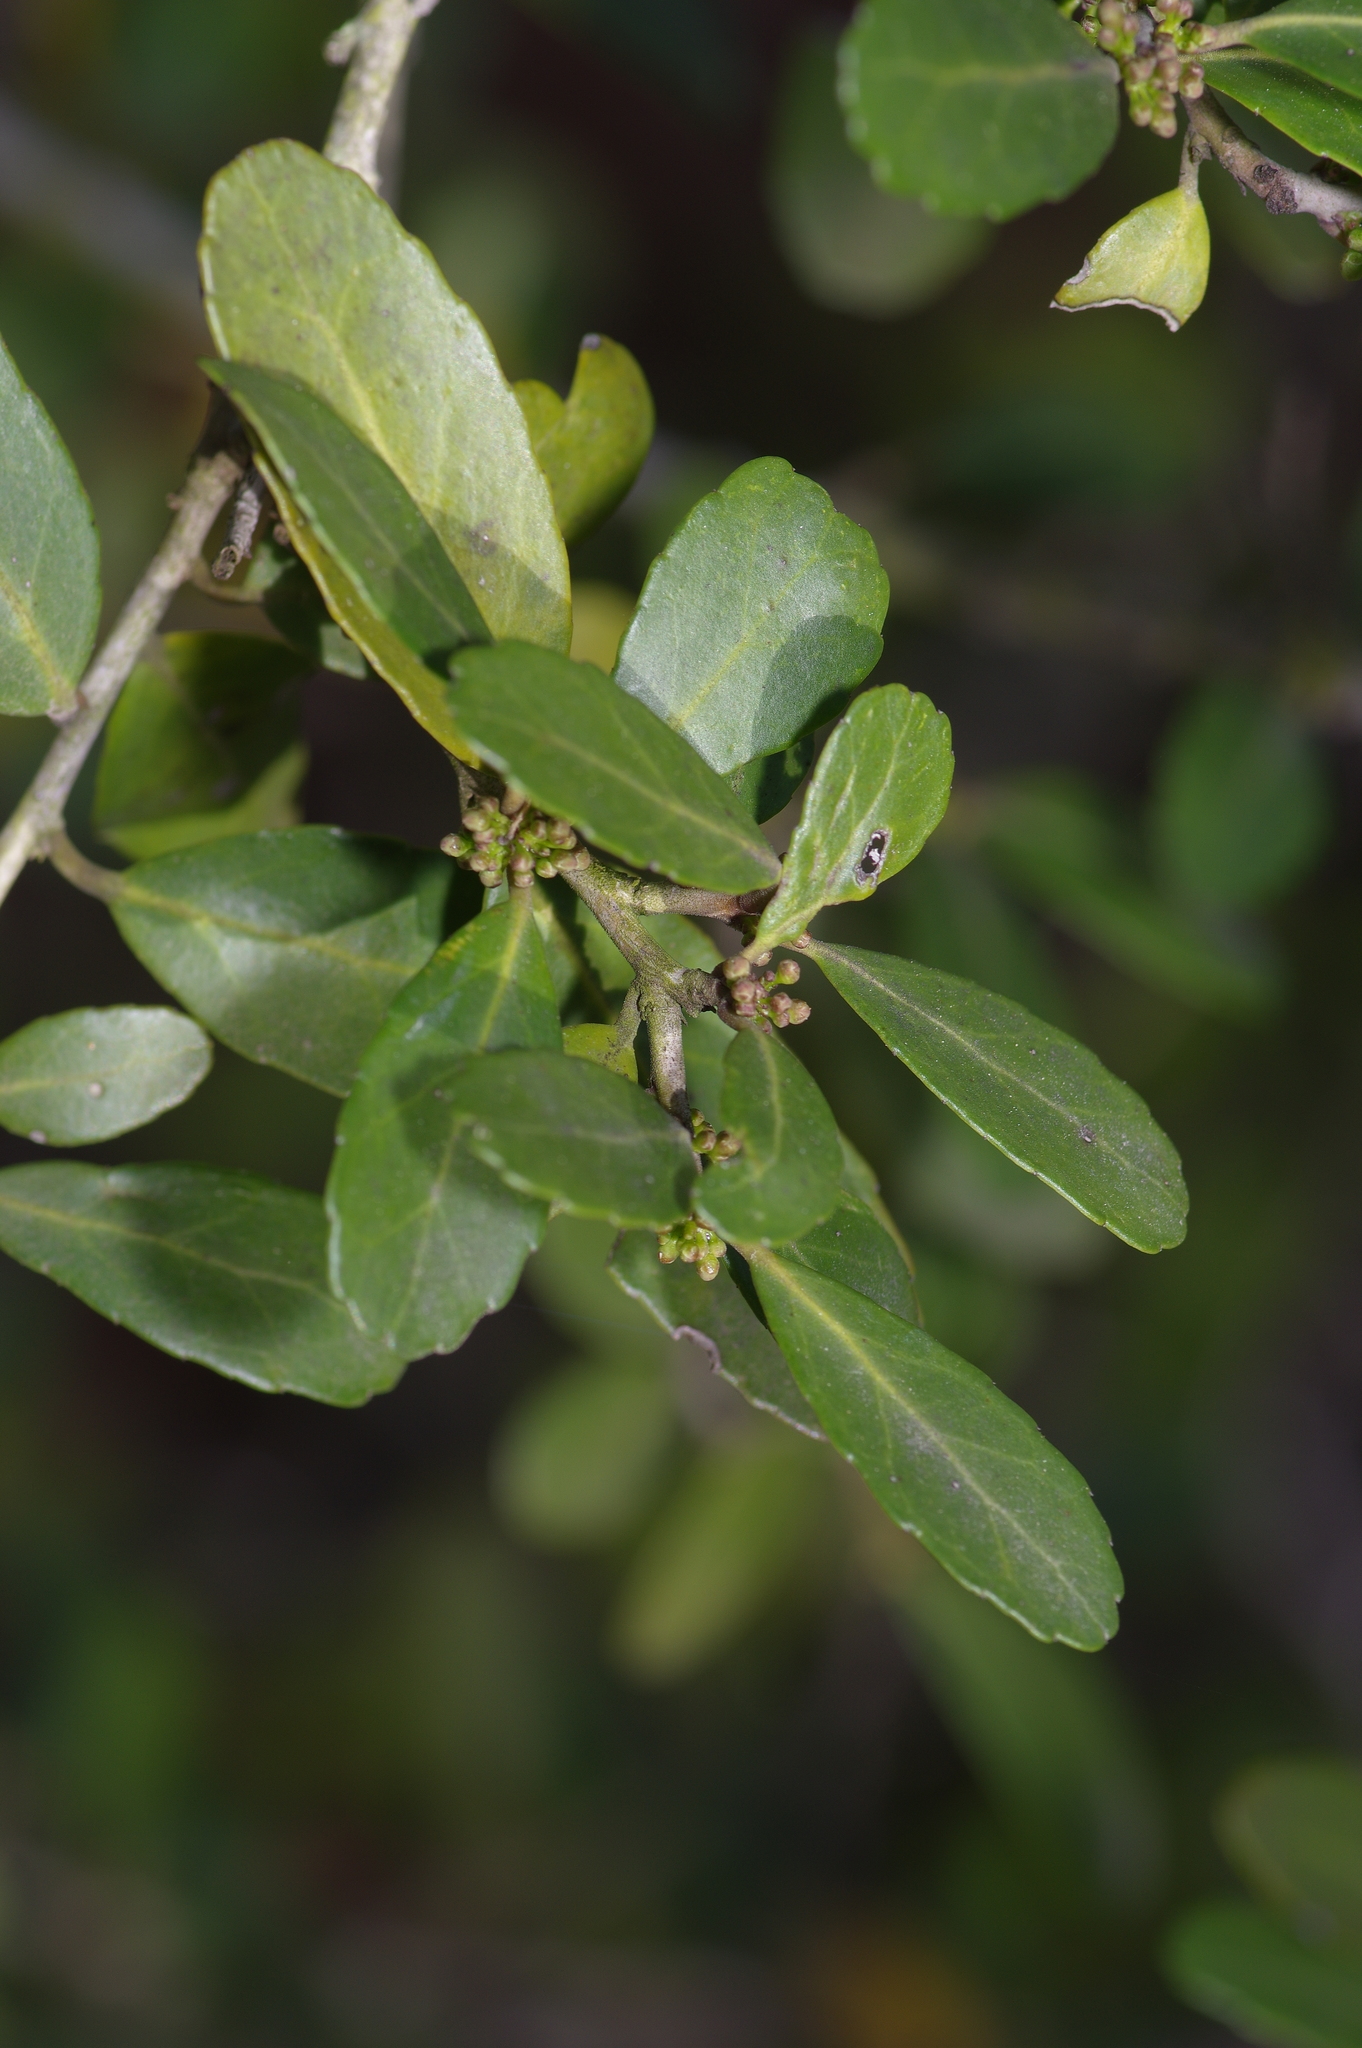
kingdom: Plantae
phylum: Tracheophyta
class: Magnoliopsida
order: Aquifoliales
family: Aquifoliaceae
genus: Ilex
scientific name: Ilex vomitoria
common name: Yaupon holly
